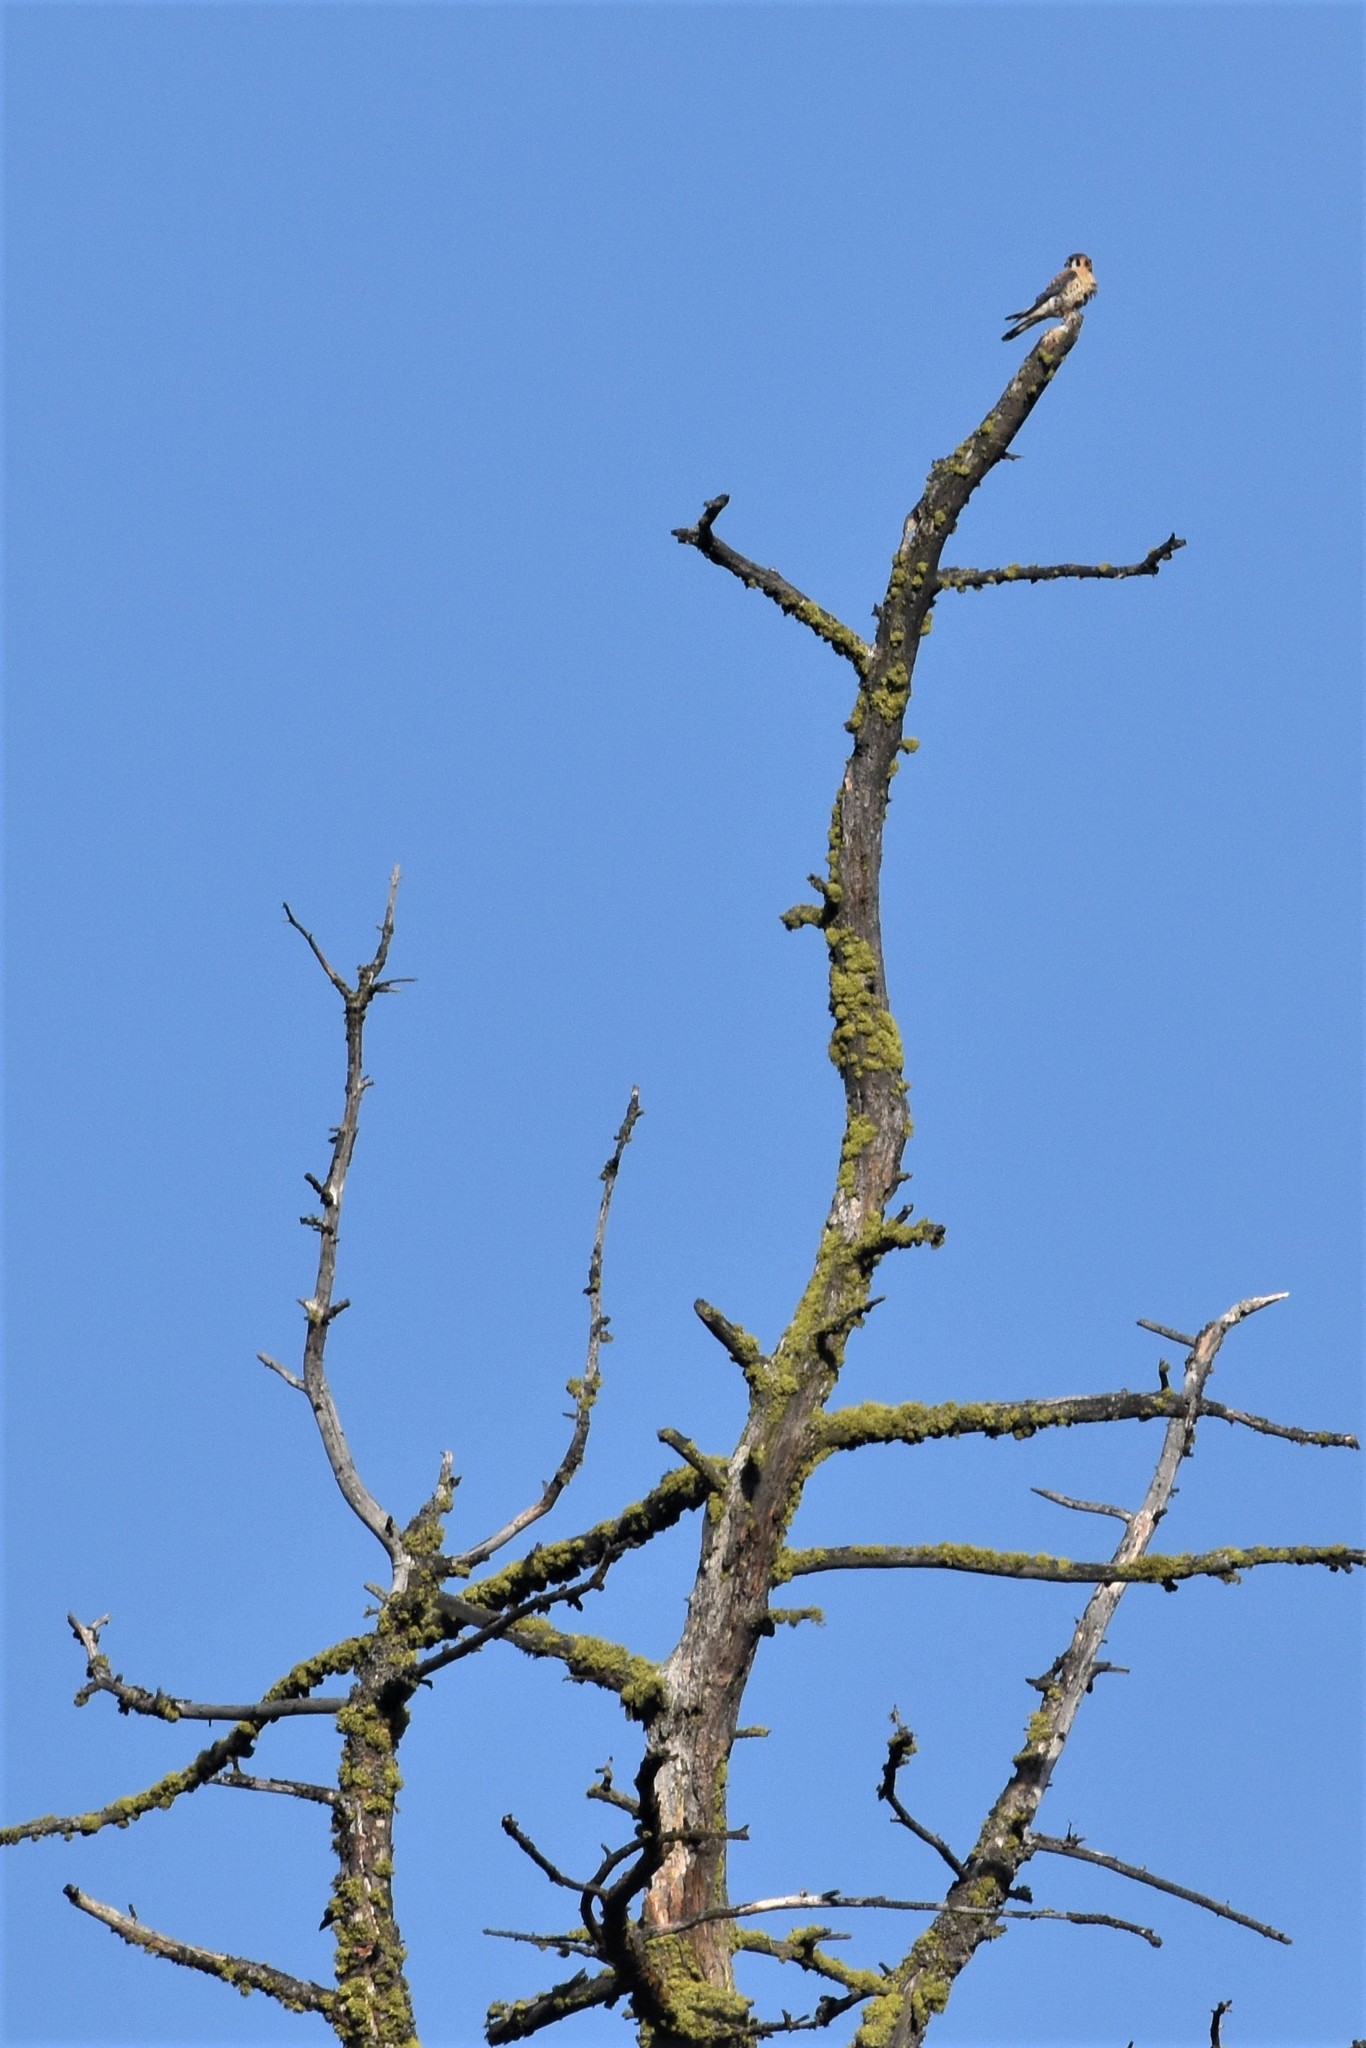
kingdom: Animalia
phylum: Chordata
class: Aves
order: Falconiformes
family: Falconidae
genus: Falco
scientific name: Falco sparverius
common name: American kestrel
